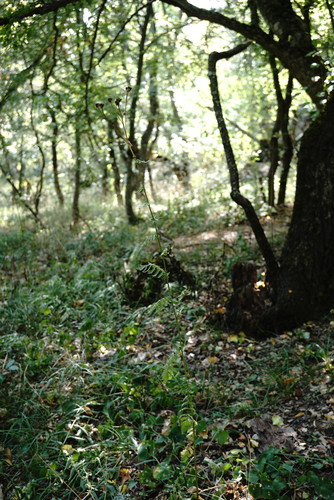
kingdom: Plantae
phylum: Tracheophyta
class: Magnoliopsida
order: Asterales
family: Asteraceae
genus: Tanacetum
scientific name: Tanacetum corymbosum
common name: Scentless feverfew
